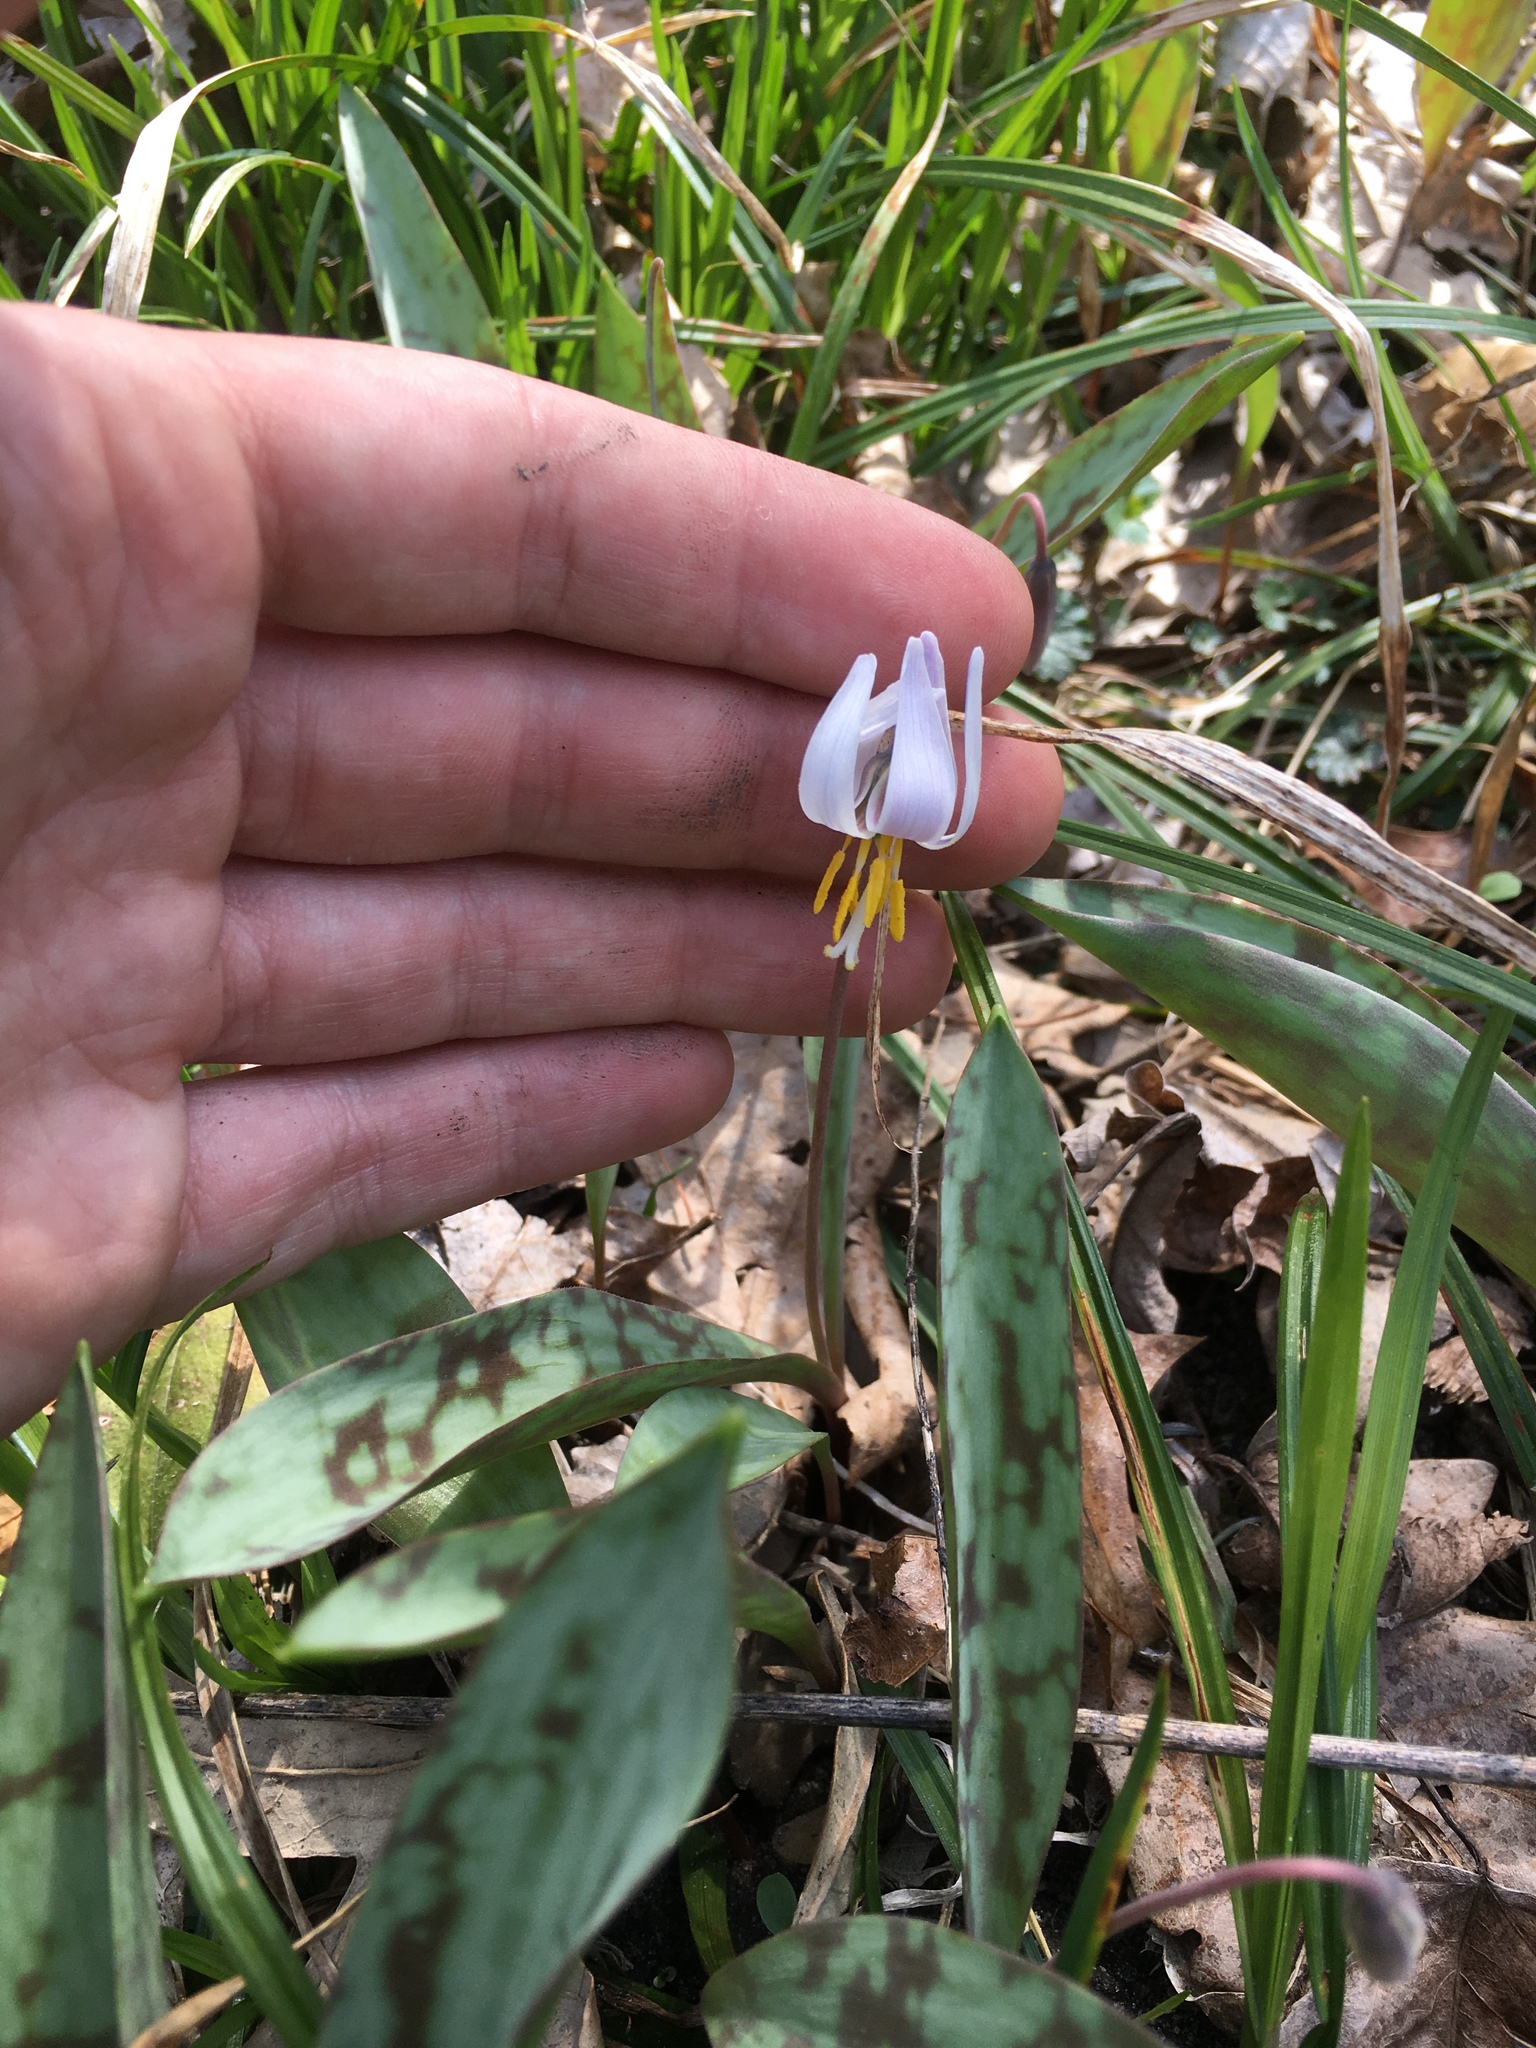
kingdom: Plantae
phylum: Tracheophyta
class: Liliopsida
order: Liliales
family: Liliaceae
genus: Erythronium
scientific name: Erythronium albidum
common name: White trout-lily
